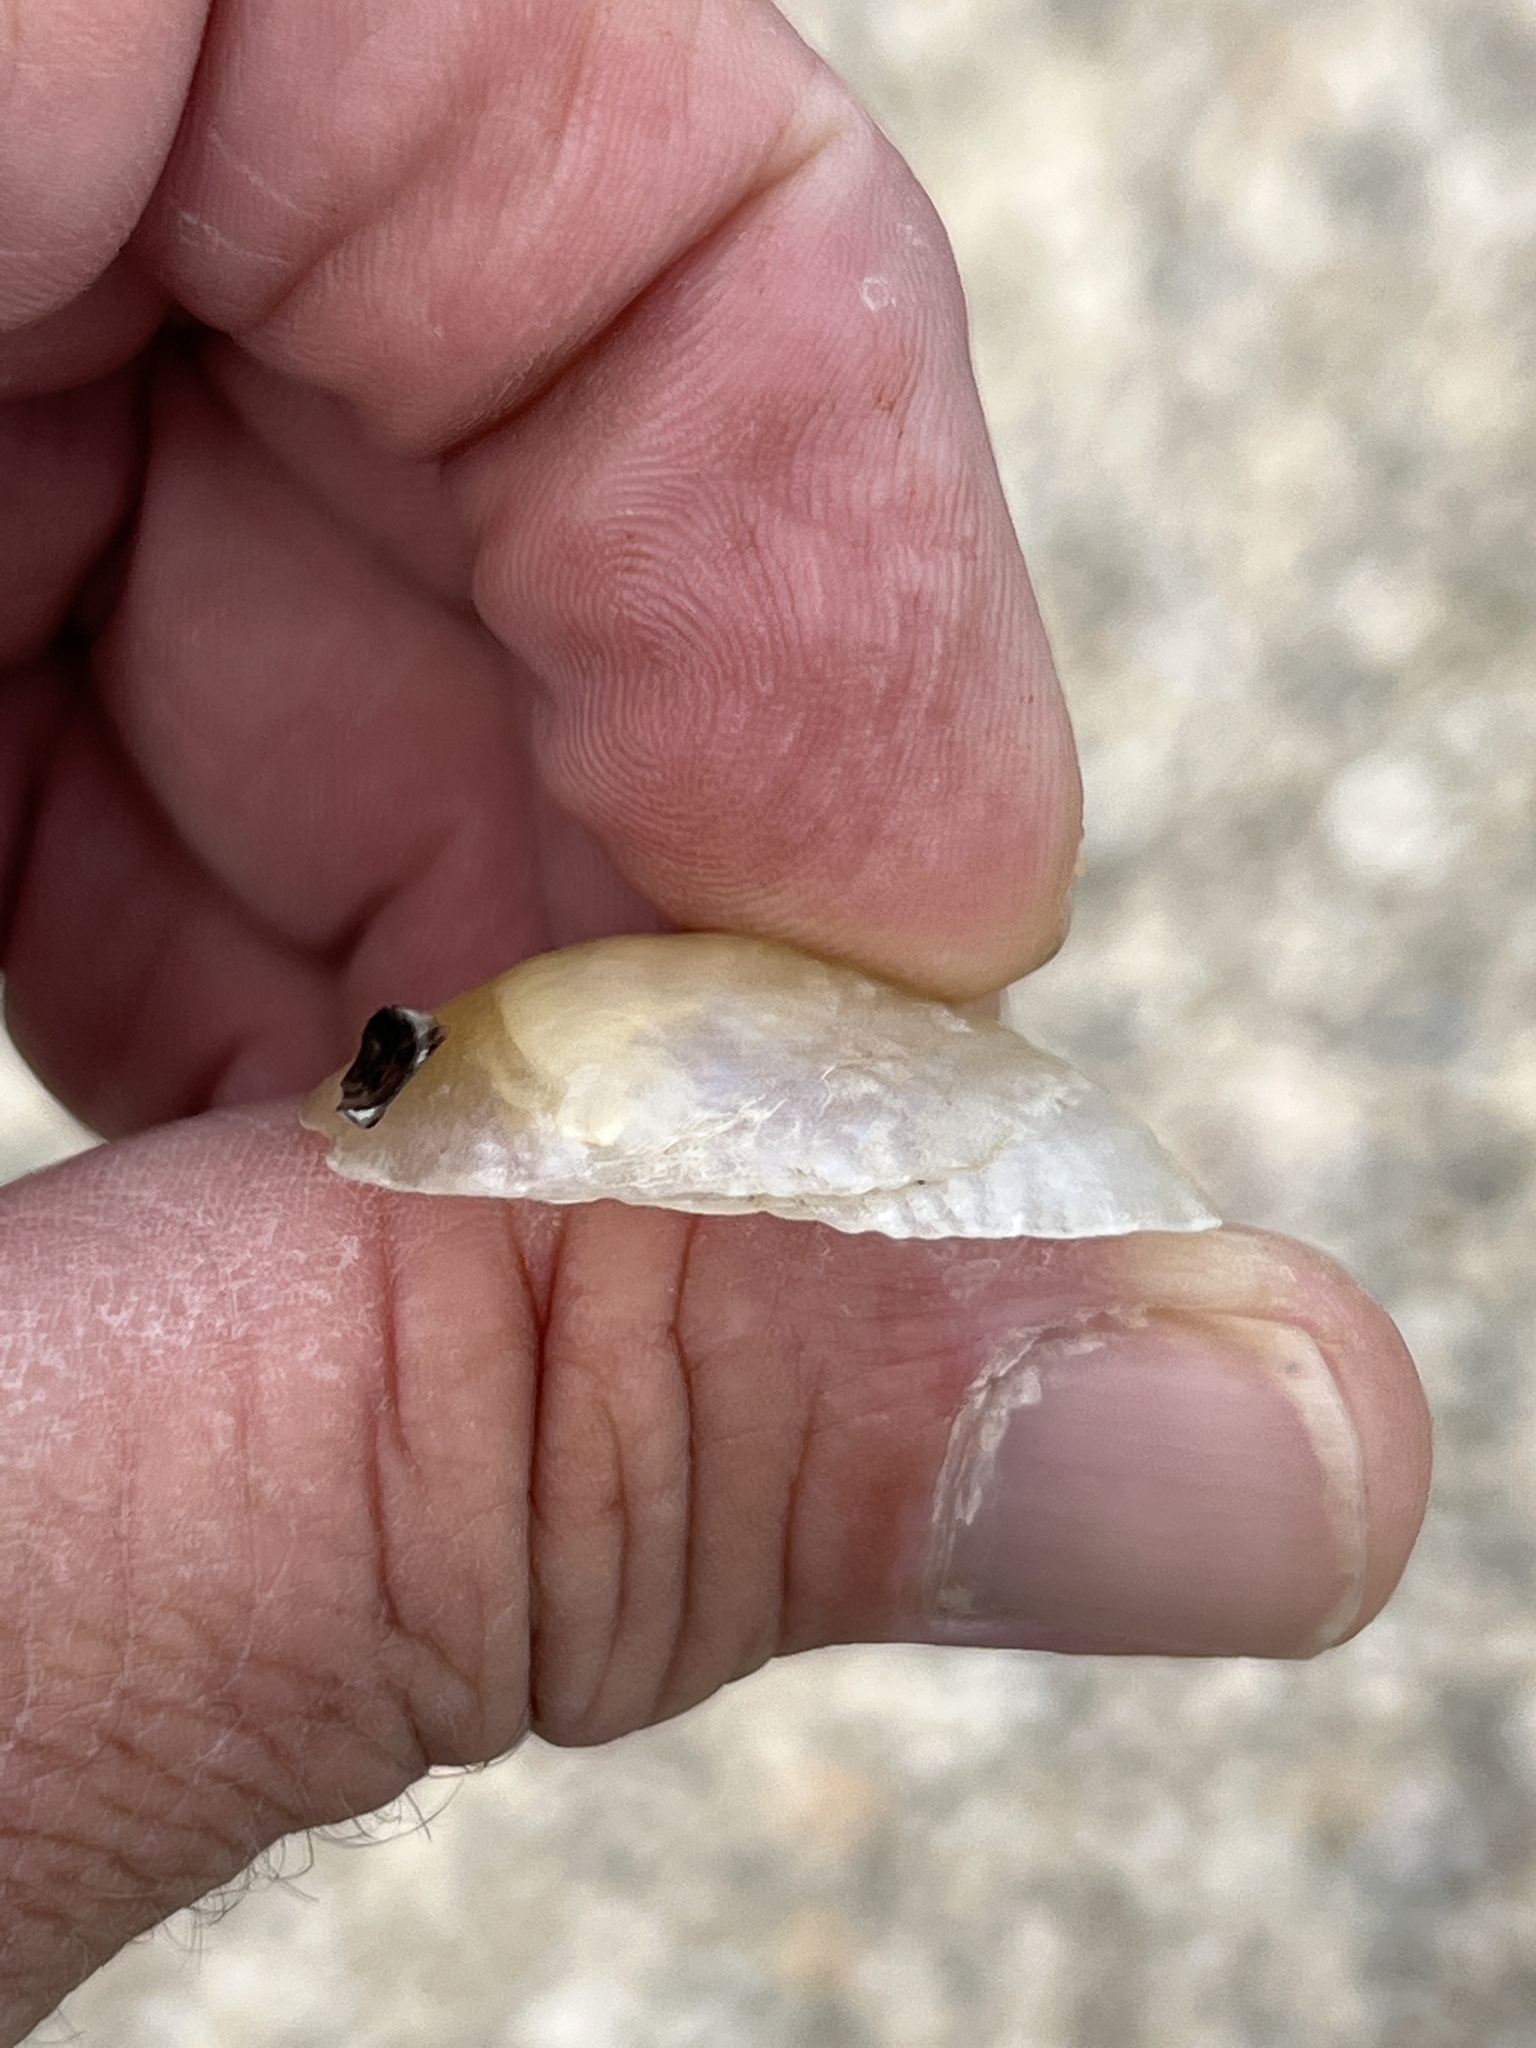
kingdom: Animalia
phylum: Mollusca
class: Bivalvia
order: Pectinida
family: Anomiidae
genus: Anomia
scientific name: Anomia simplex
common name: Common jingle shell
